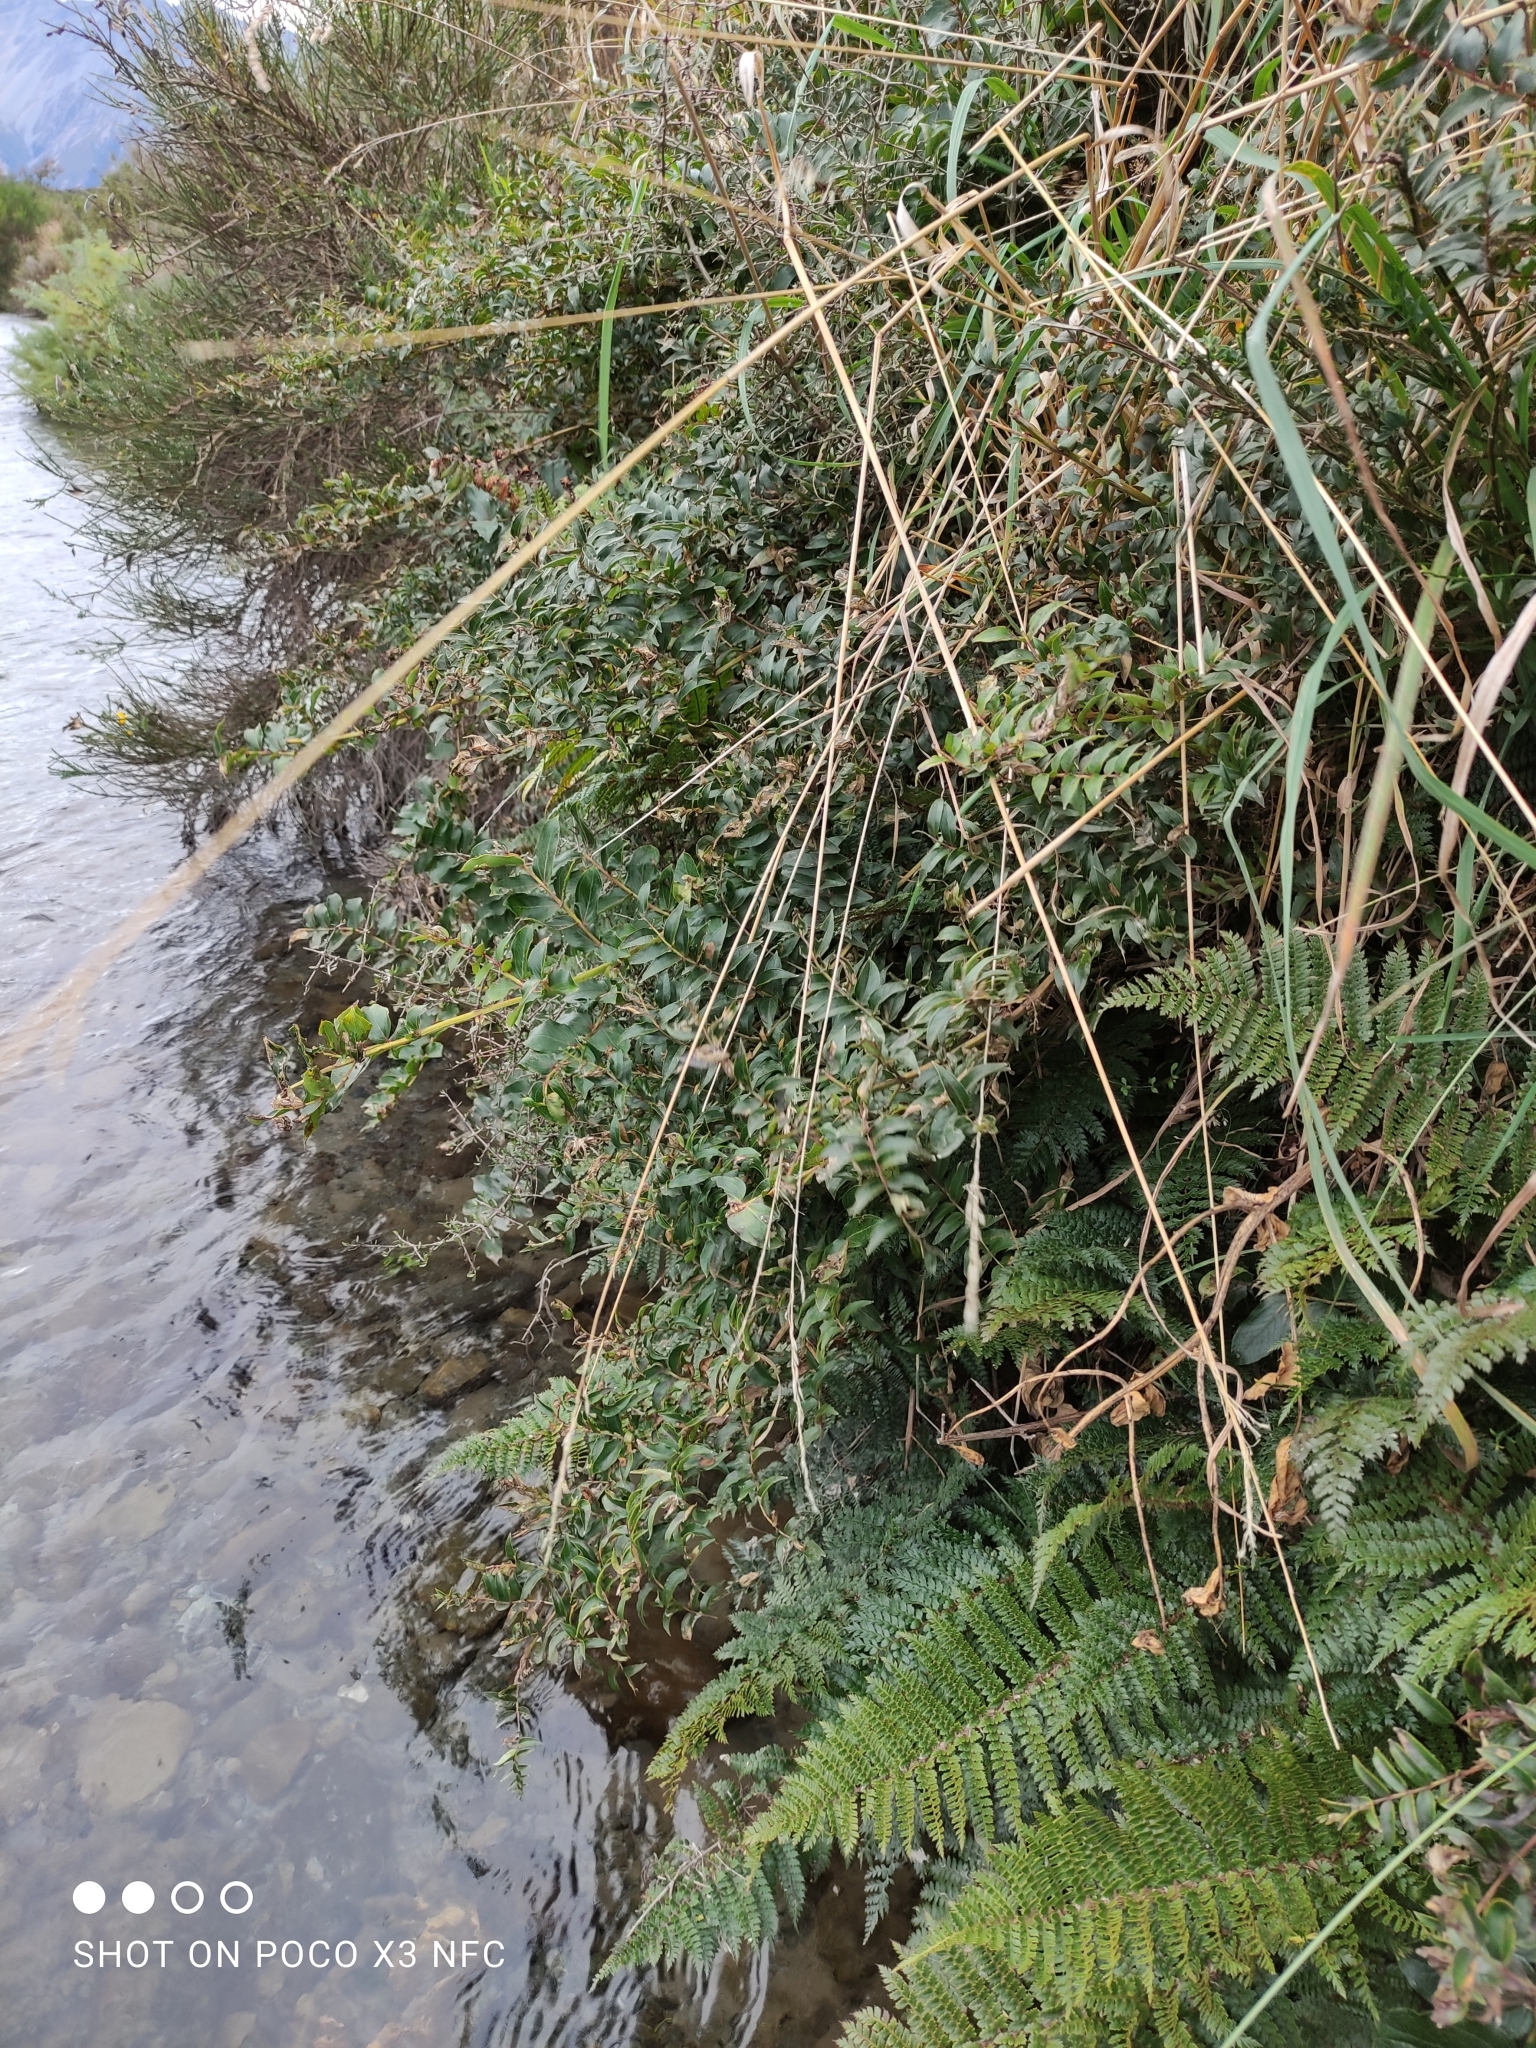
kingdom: Plantae
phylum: Tracheophyta
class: Magnoliopsida
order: Cucurbitales
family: Coriariaceae
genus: Coriaria
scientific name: Coriaria arborea
